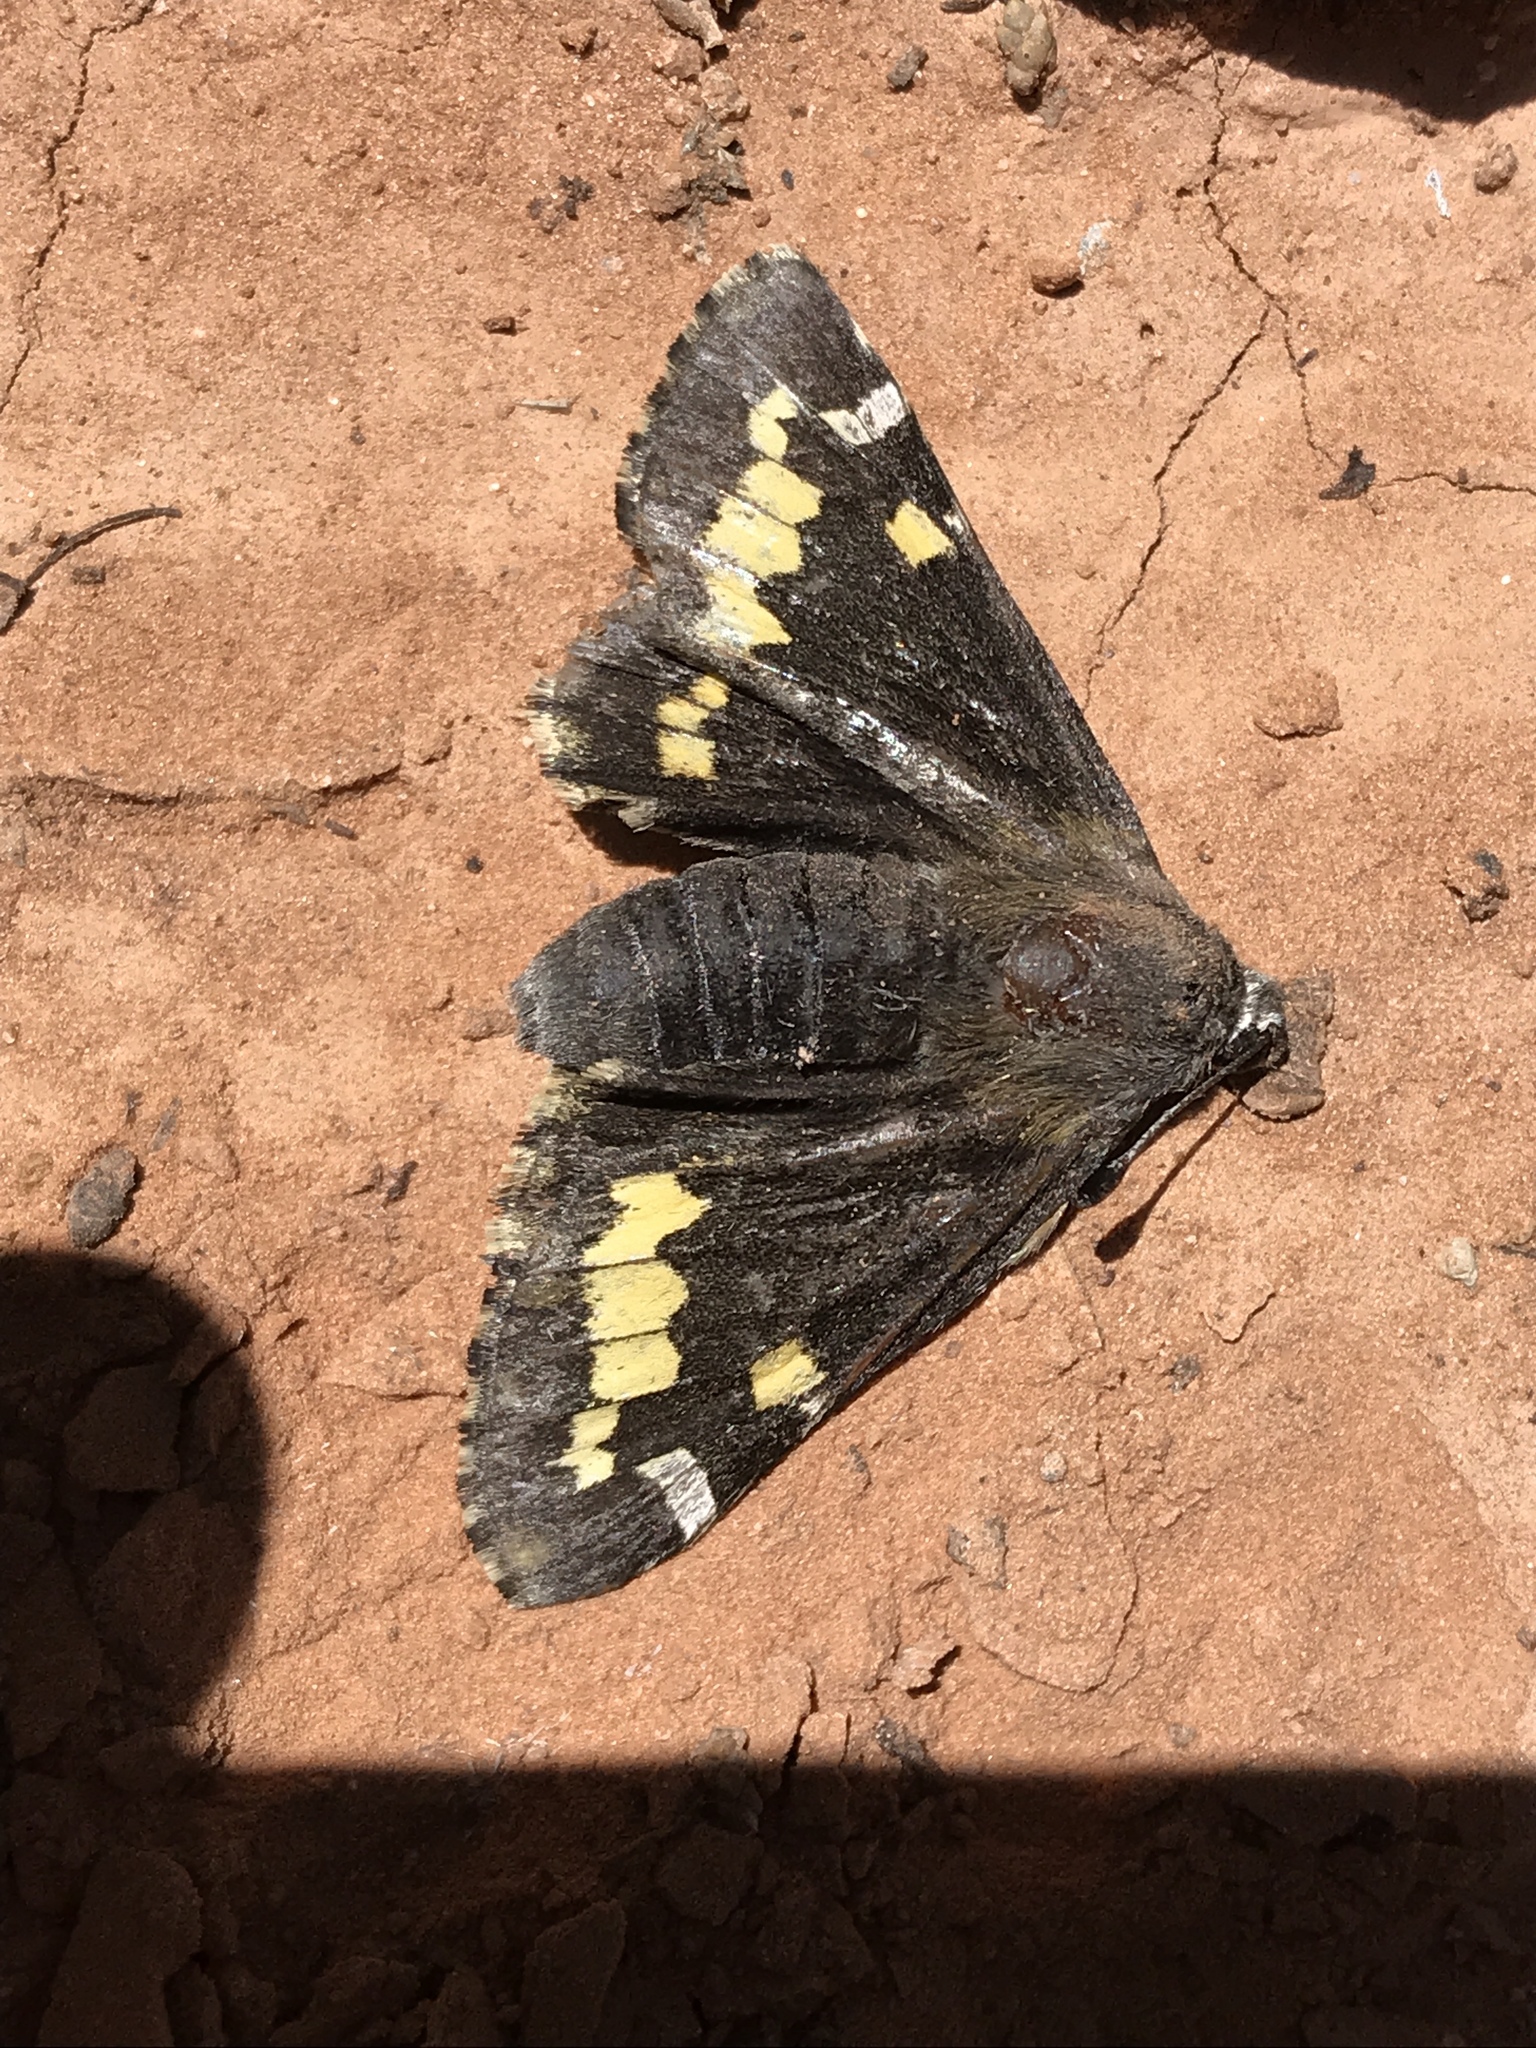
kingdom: Animalia
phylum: Arthropoda
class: Insecta
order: Lepidoptera
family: Hesperiidae
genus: Megathymus
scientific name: Megathymus yuccae
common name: Yucca giant-skipper
